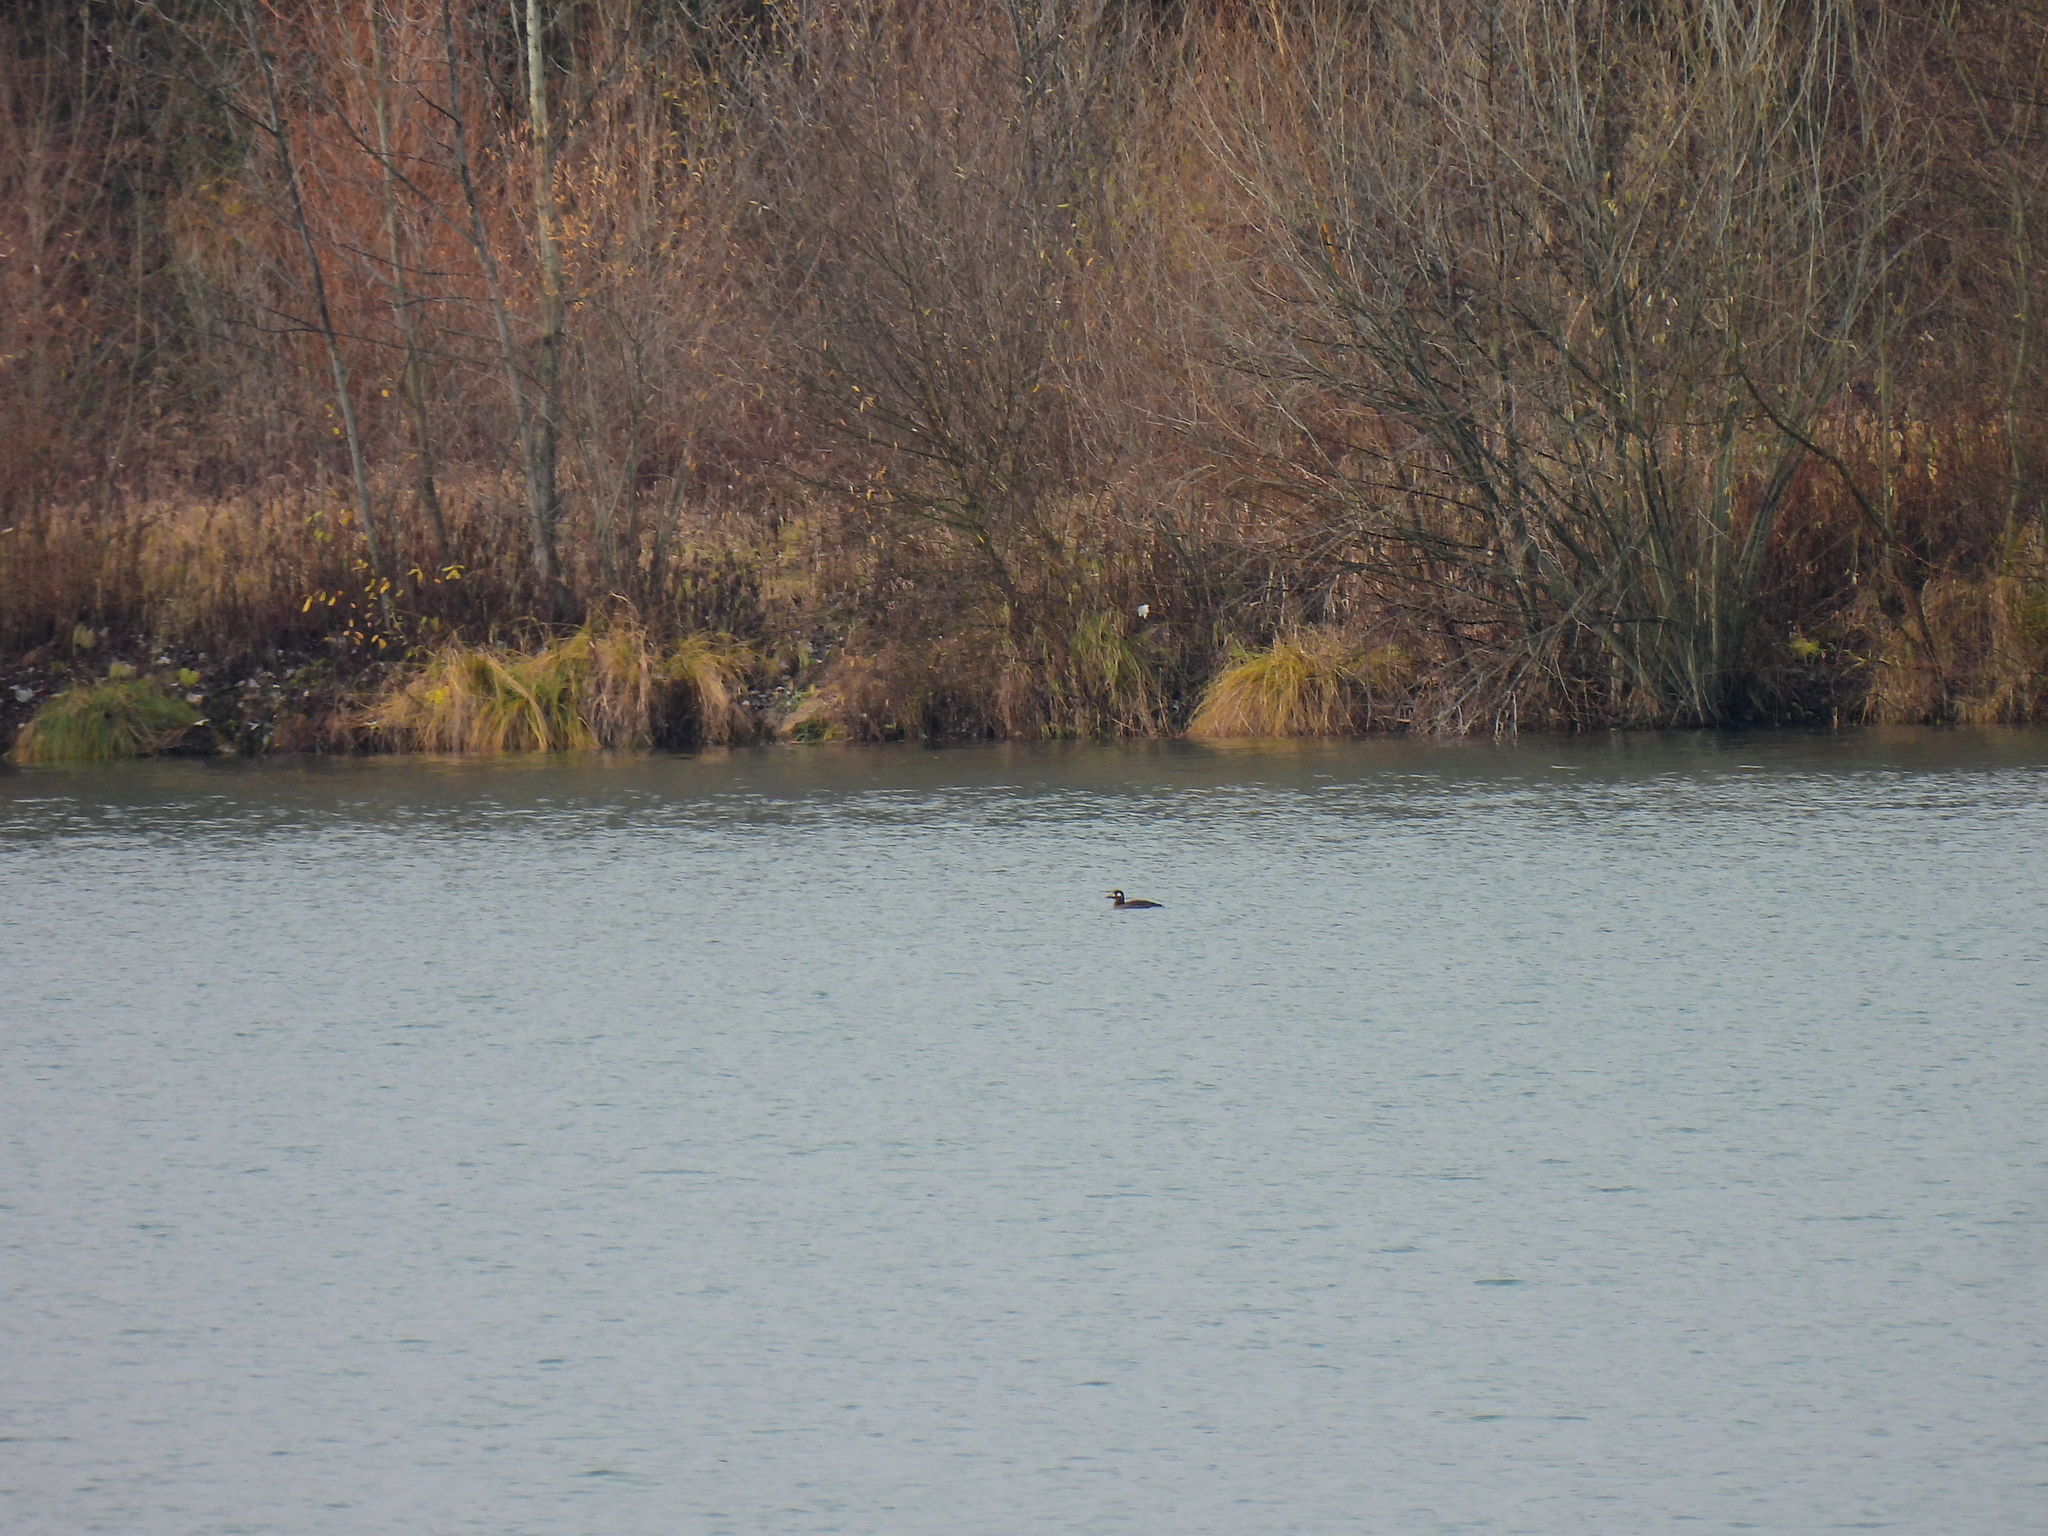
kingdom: Animalia
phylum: Chordata
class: Aves
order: Anseriformes
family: Anatidae
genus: Melanitta
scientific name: Melanitta fusca
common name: Velvet scoter
